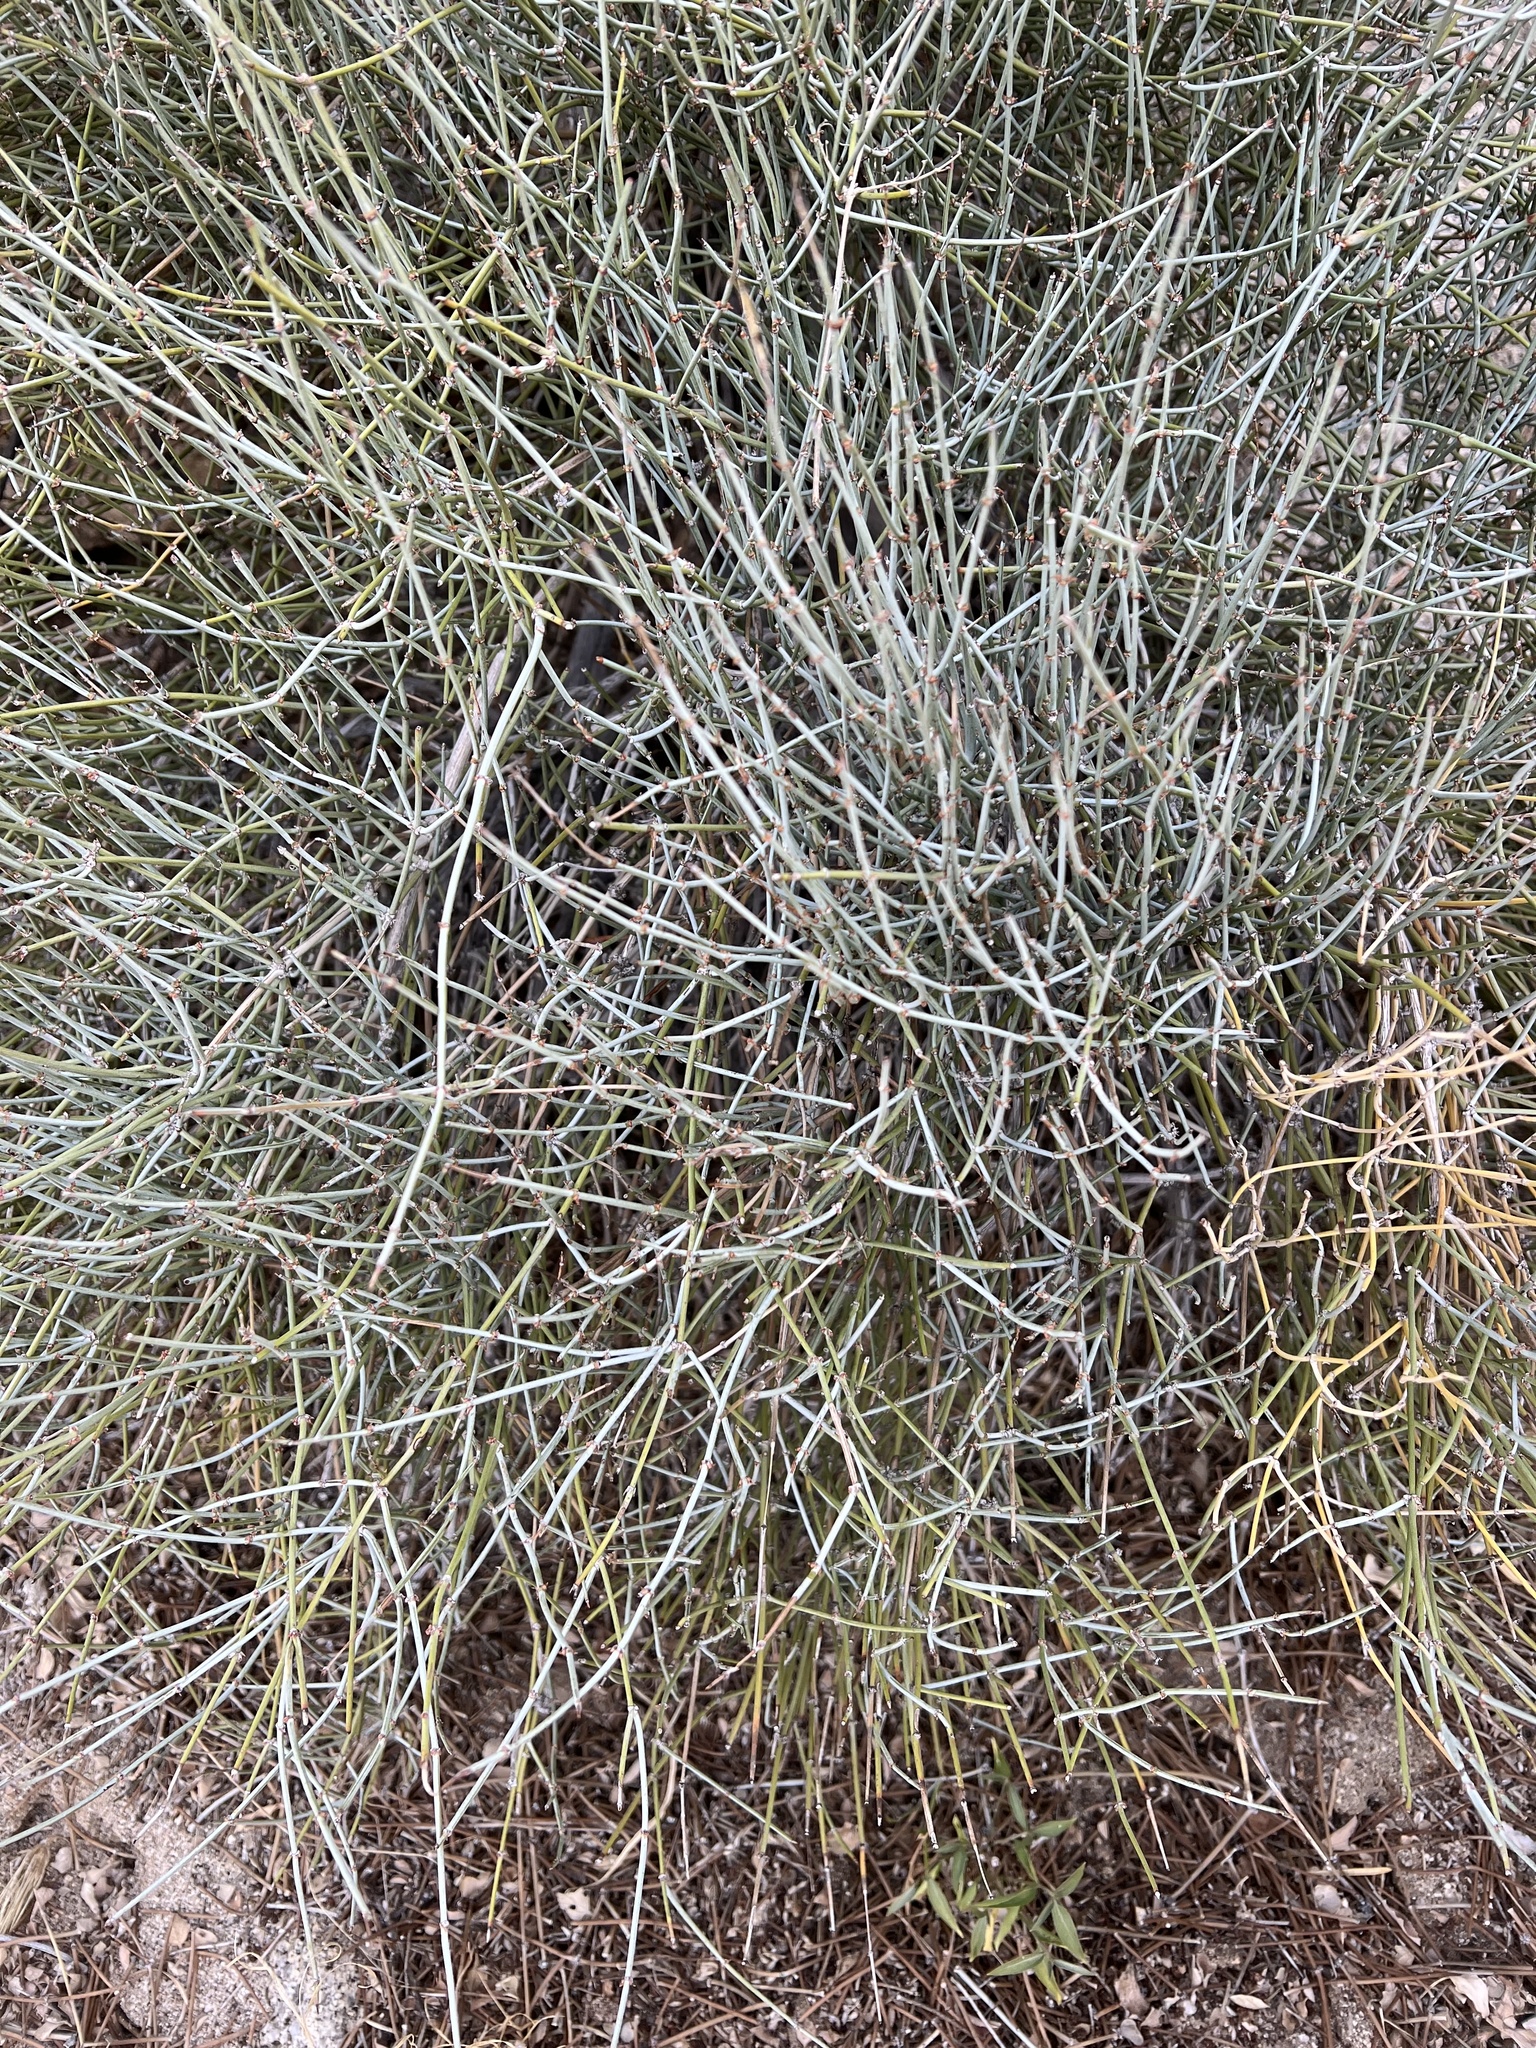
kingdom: Plantae
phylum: Tracheophyta
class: Gnetopsida
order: Ephedrales
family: Ephedraceae
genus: Ephedra
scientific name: Ephedra aspera
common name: Boundary ephedra
